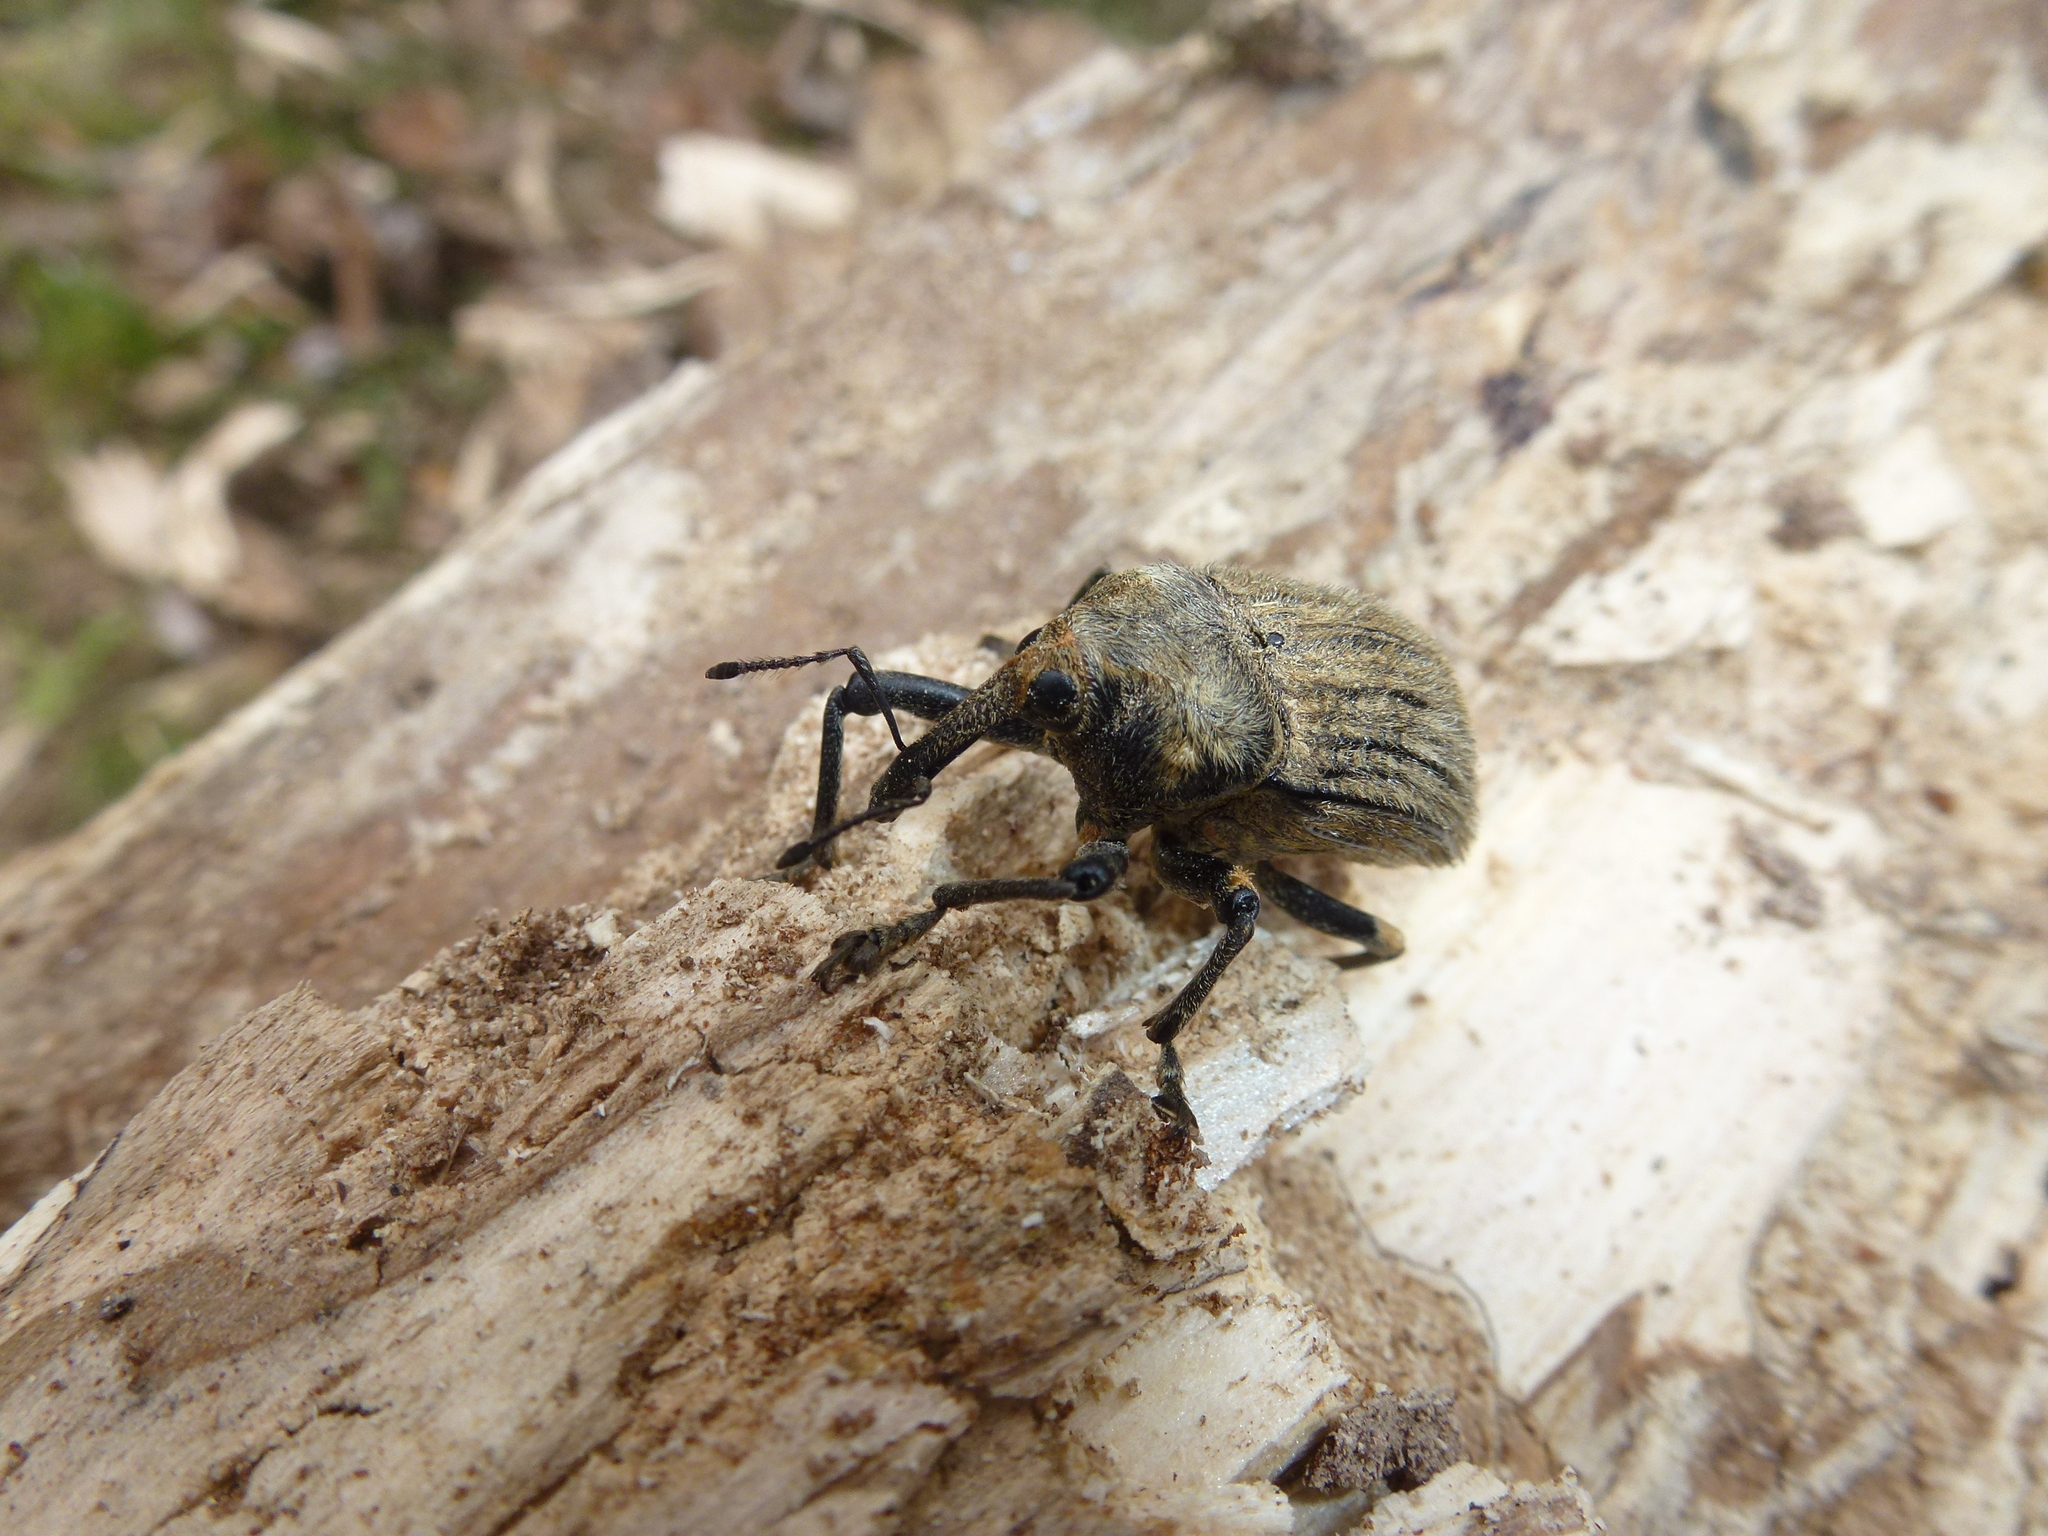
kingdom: Animalia
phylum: Arthropoda
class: Insecta
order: Coleoptera
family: Curculionidae
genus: Rhynchodes
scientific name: Rhynchodes ursus
